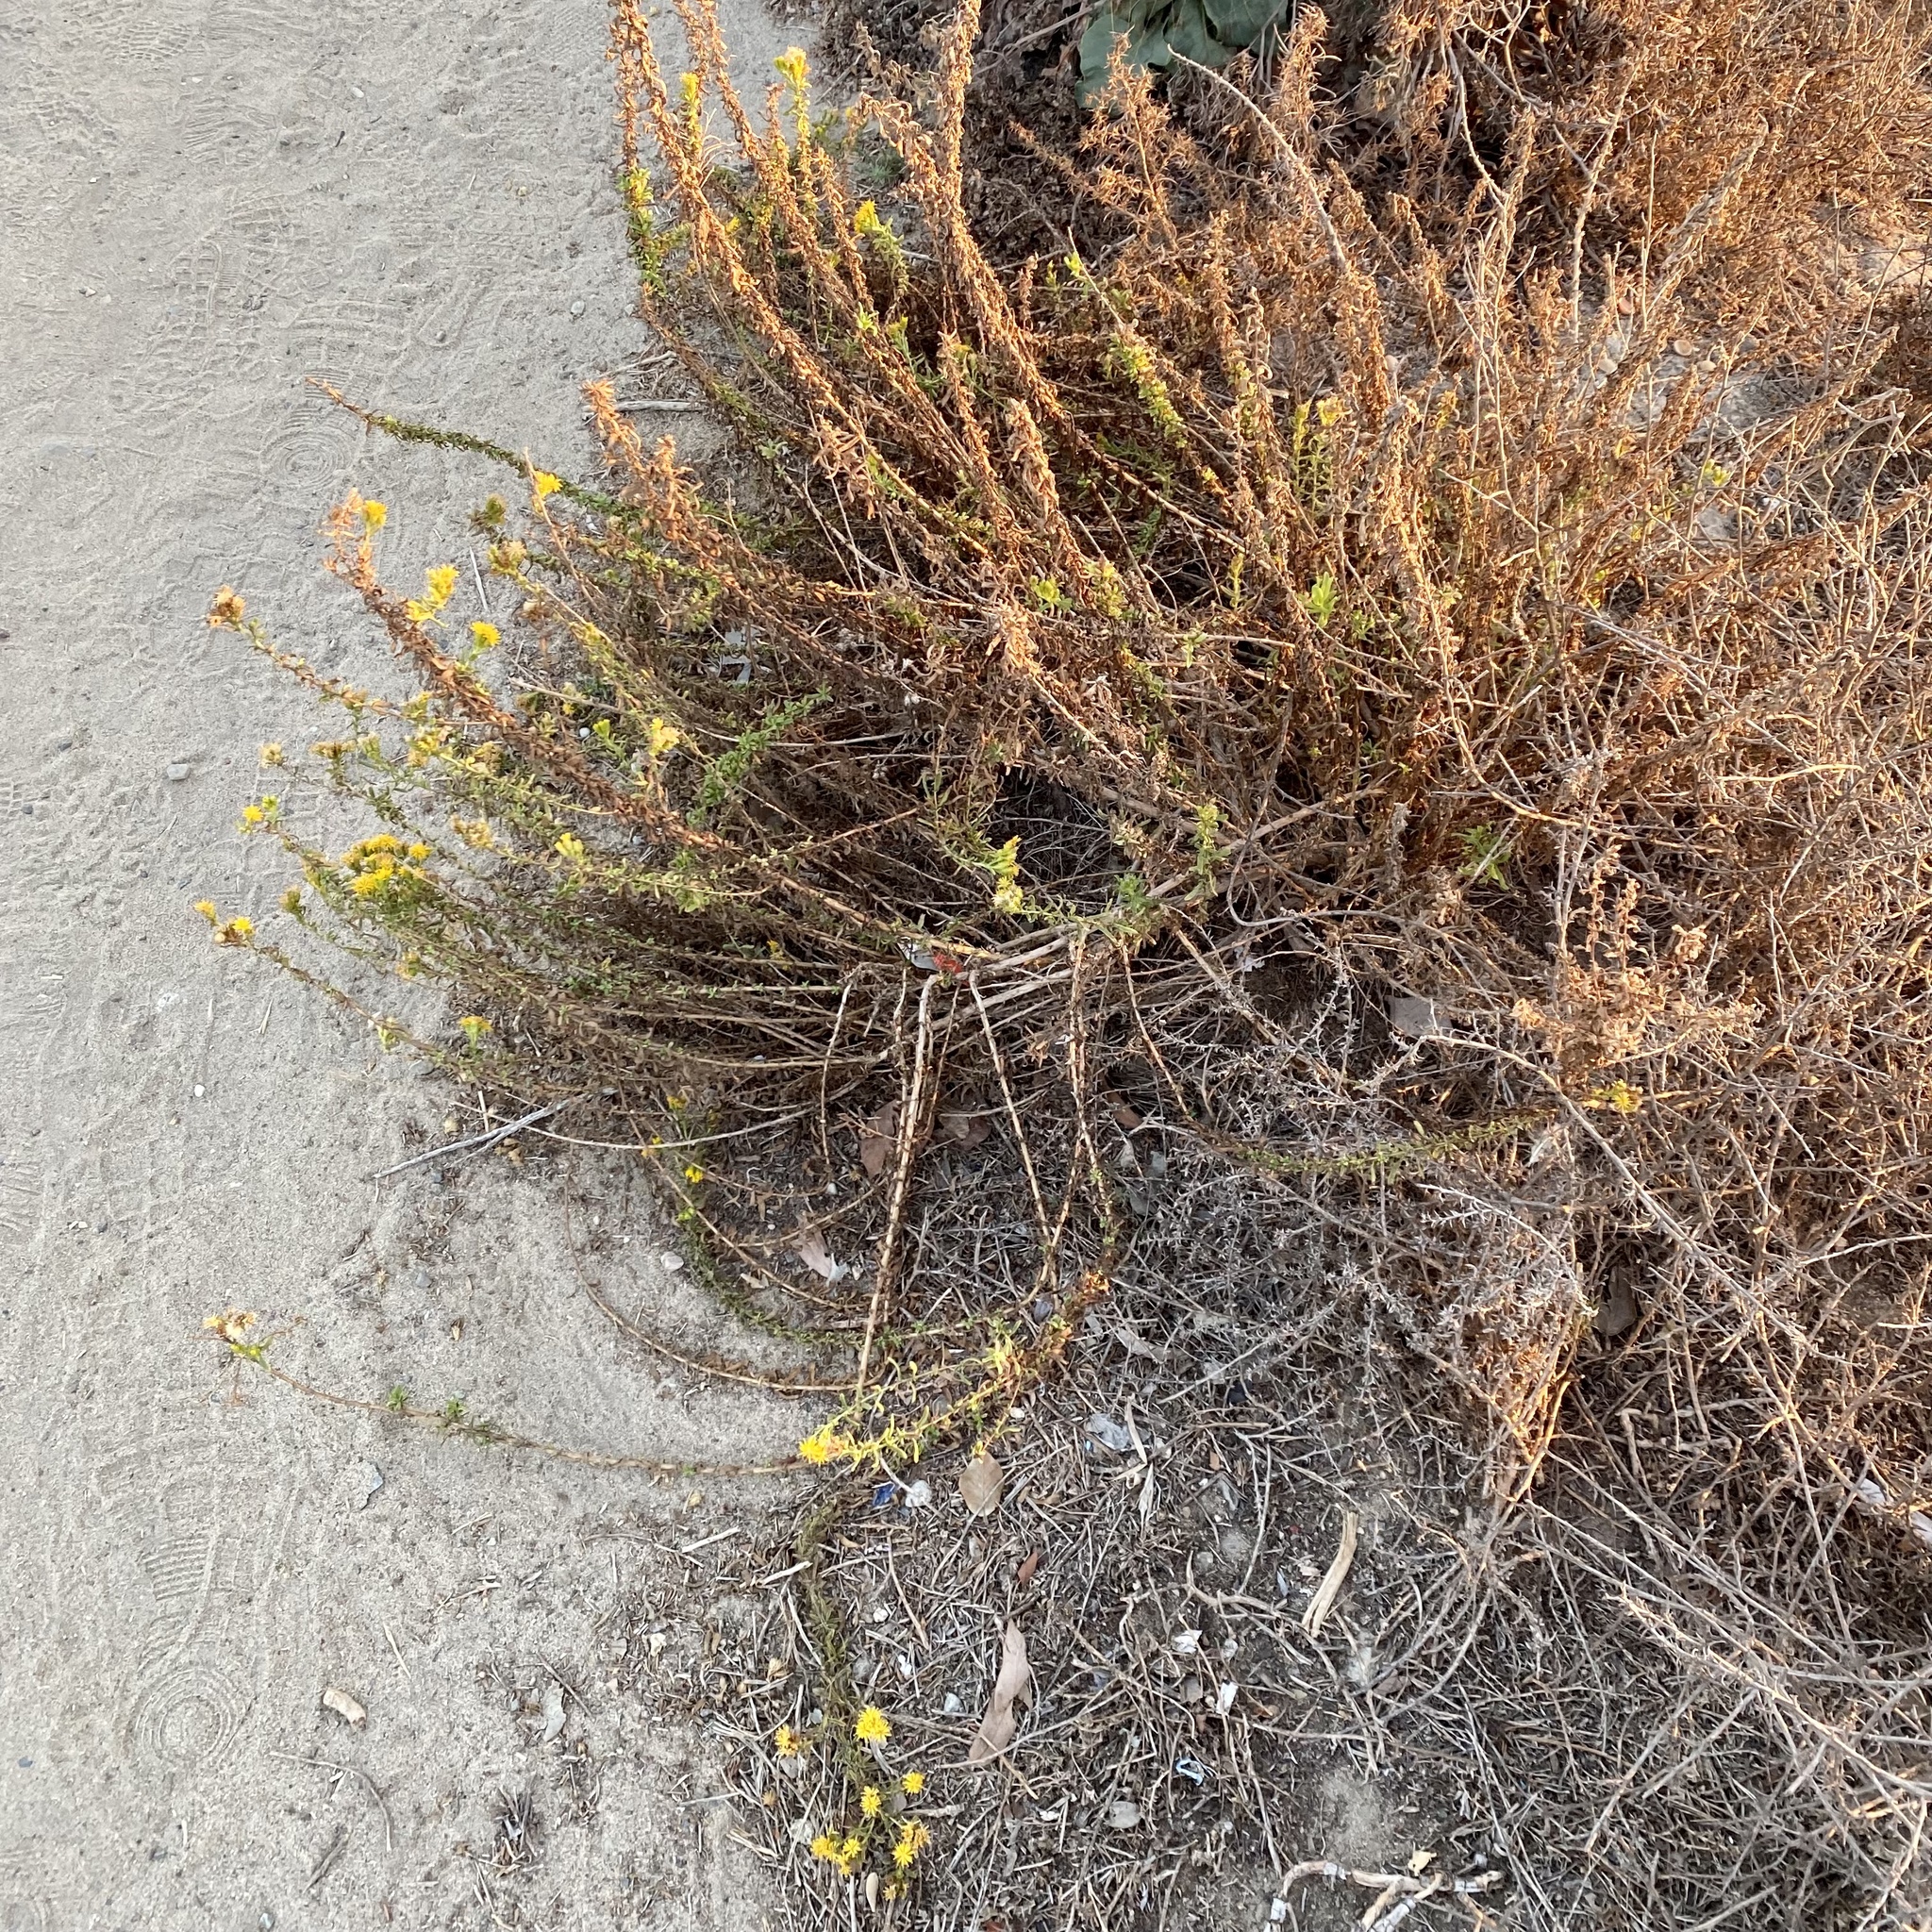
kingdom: Plantae
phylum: Tracheophyta
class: Magnoliopsida
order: Asterales
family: Asteraceae
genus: Isocoma
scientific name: Isocoma menziesii
